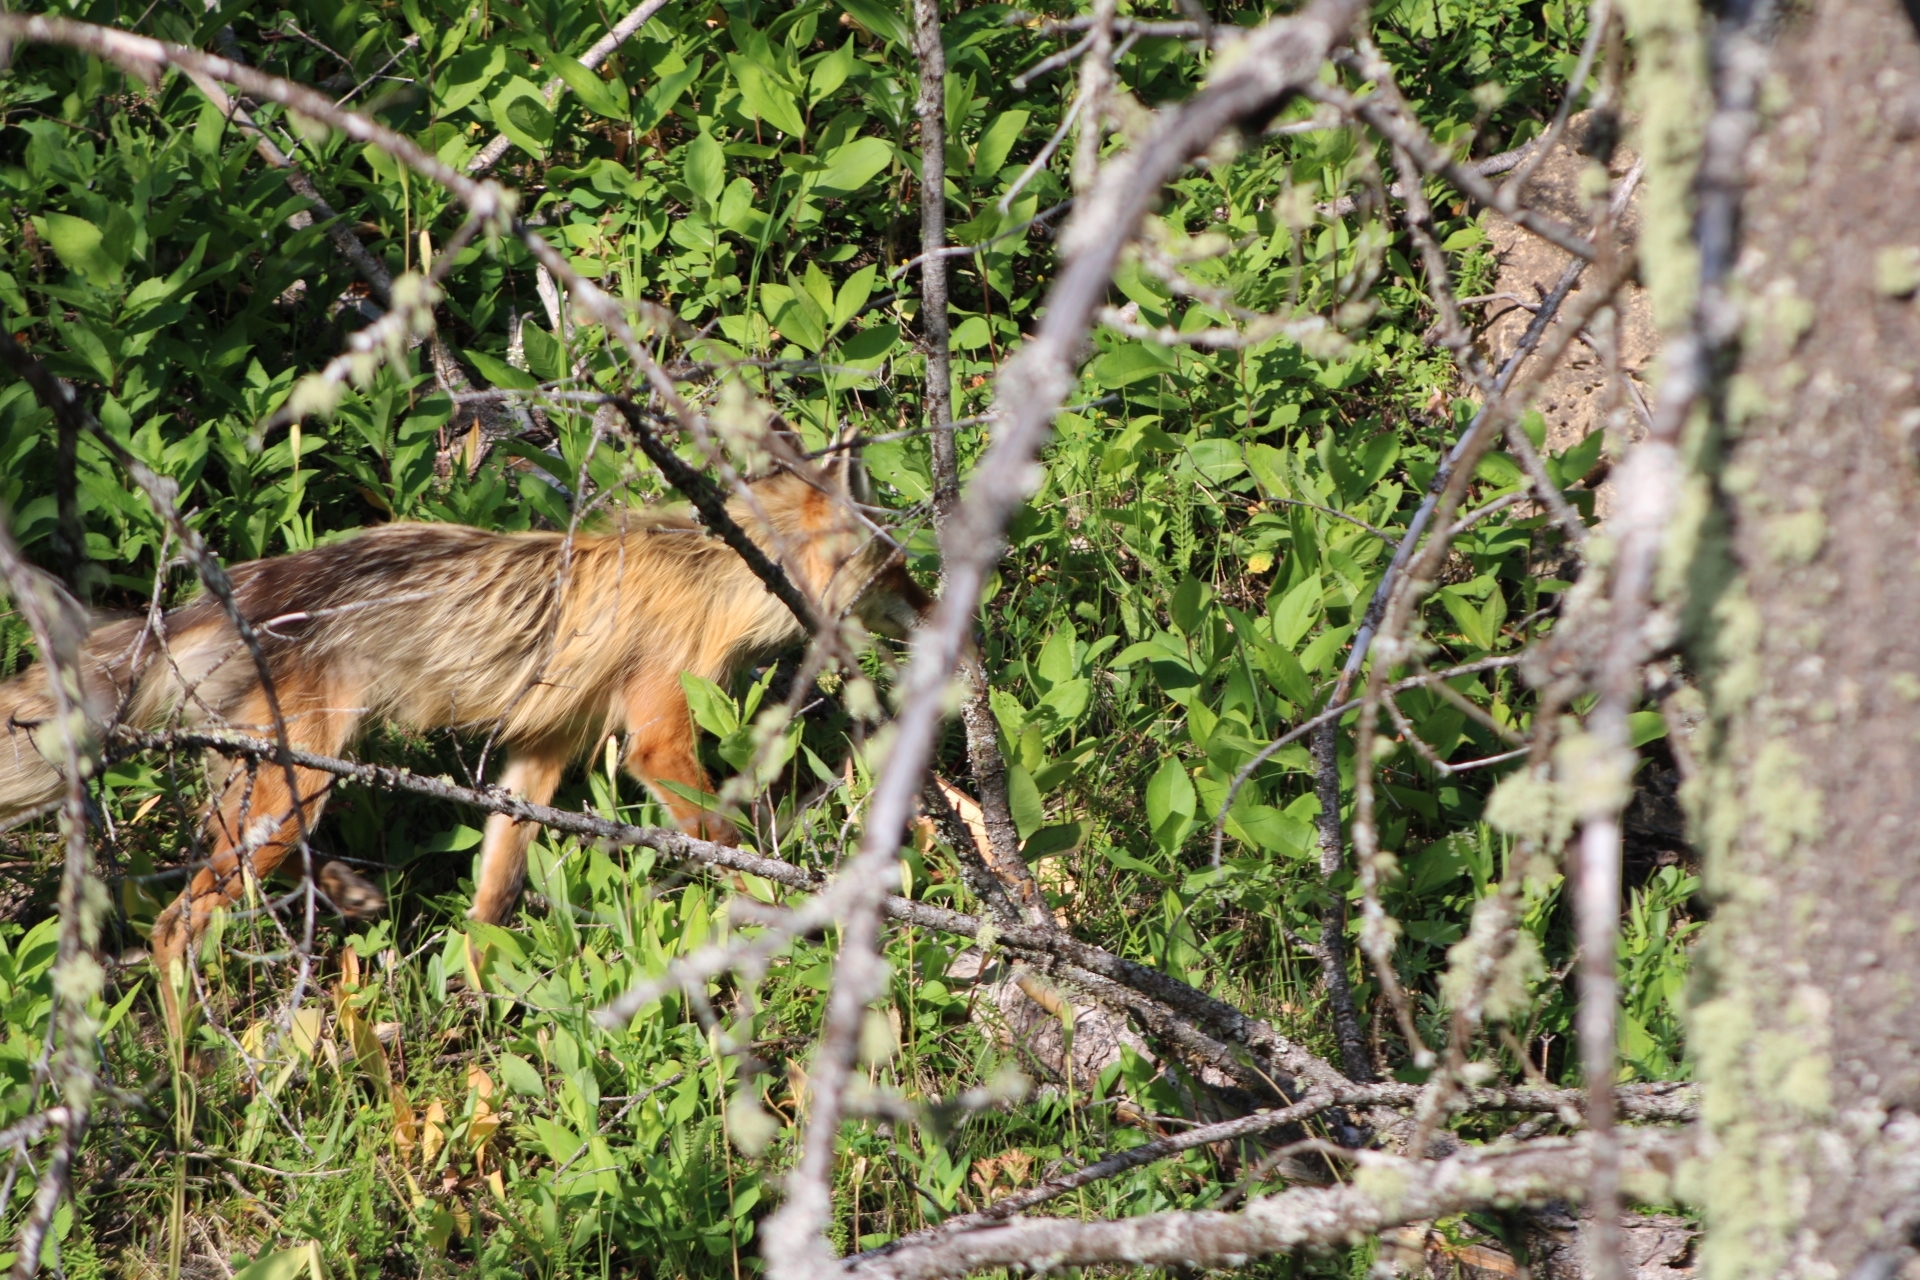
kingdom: Animalia
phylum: Chordata
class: Mammalia
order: Carnivora
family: Canidae
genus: Vulpes
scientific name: Vulpes vulpes
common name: Red fox
